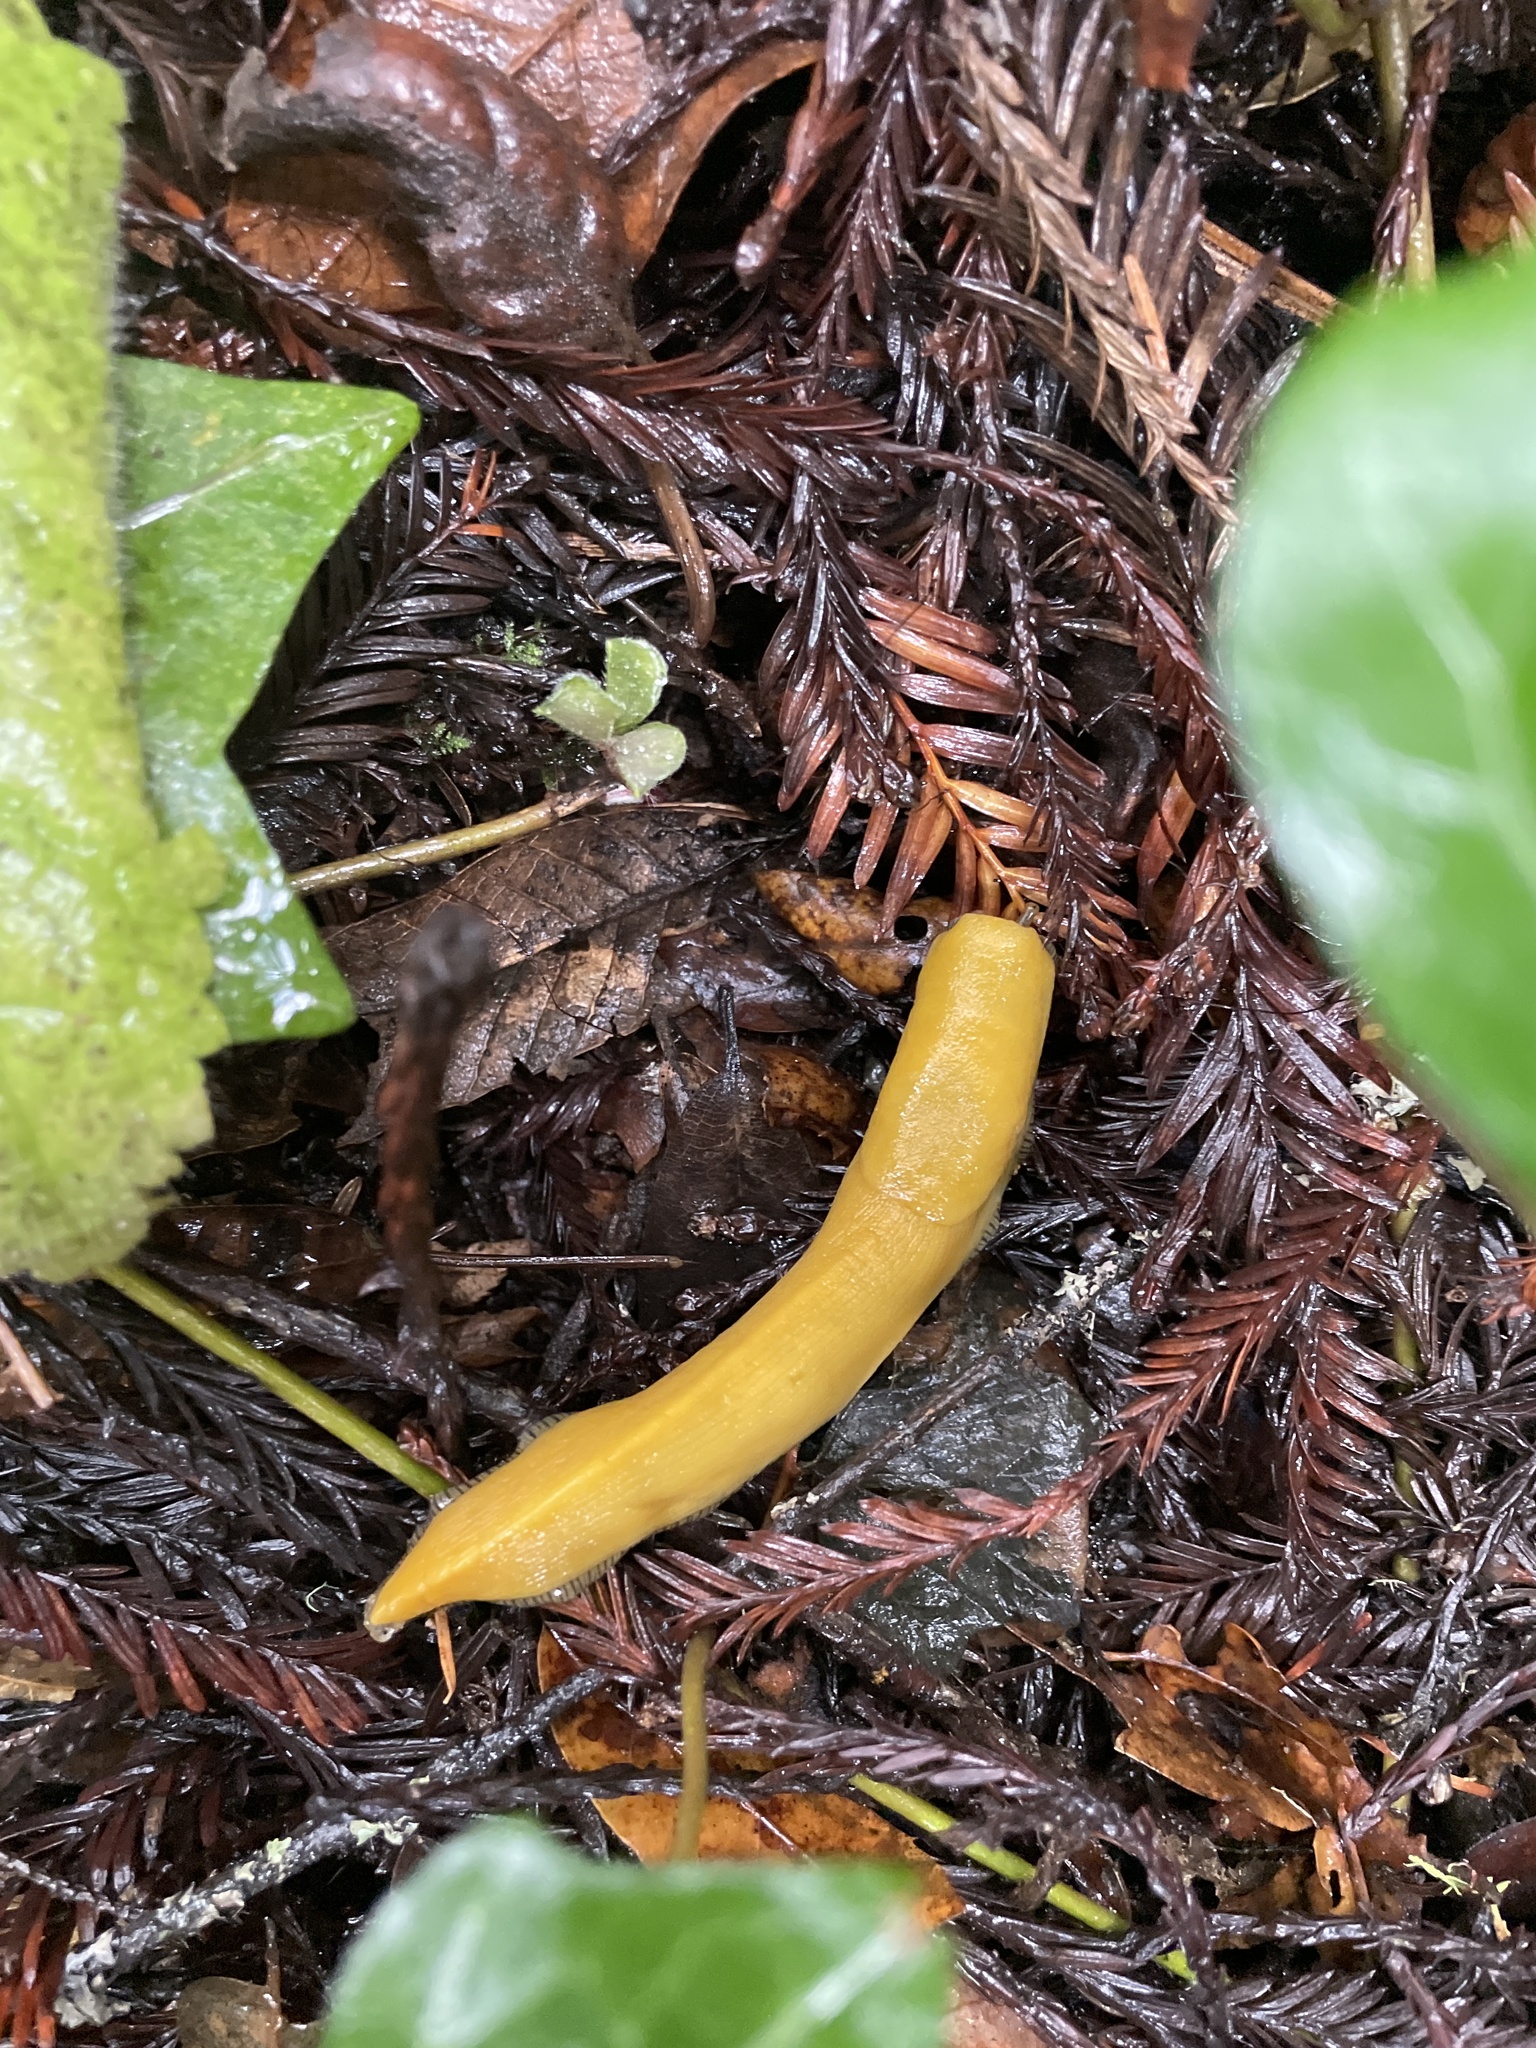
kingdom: Animalia
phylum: Mollusca
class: Gastropoda
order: Stylommatophora
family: Ariolimacidae
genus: Ariolimax
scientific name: Ariolimax dolichophallus
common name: Slender banana slug
